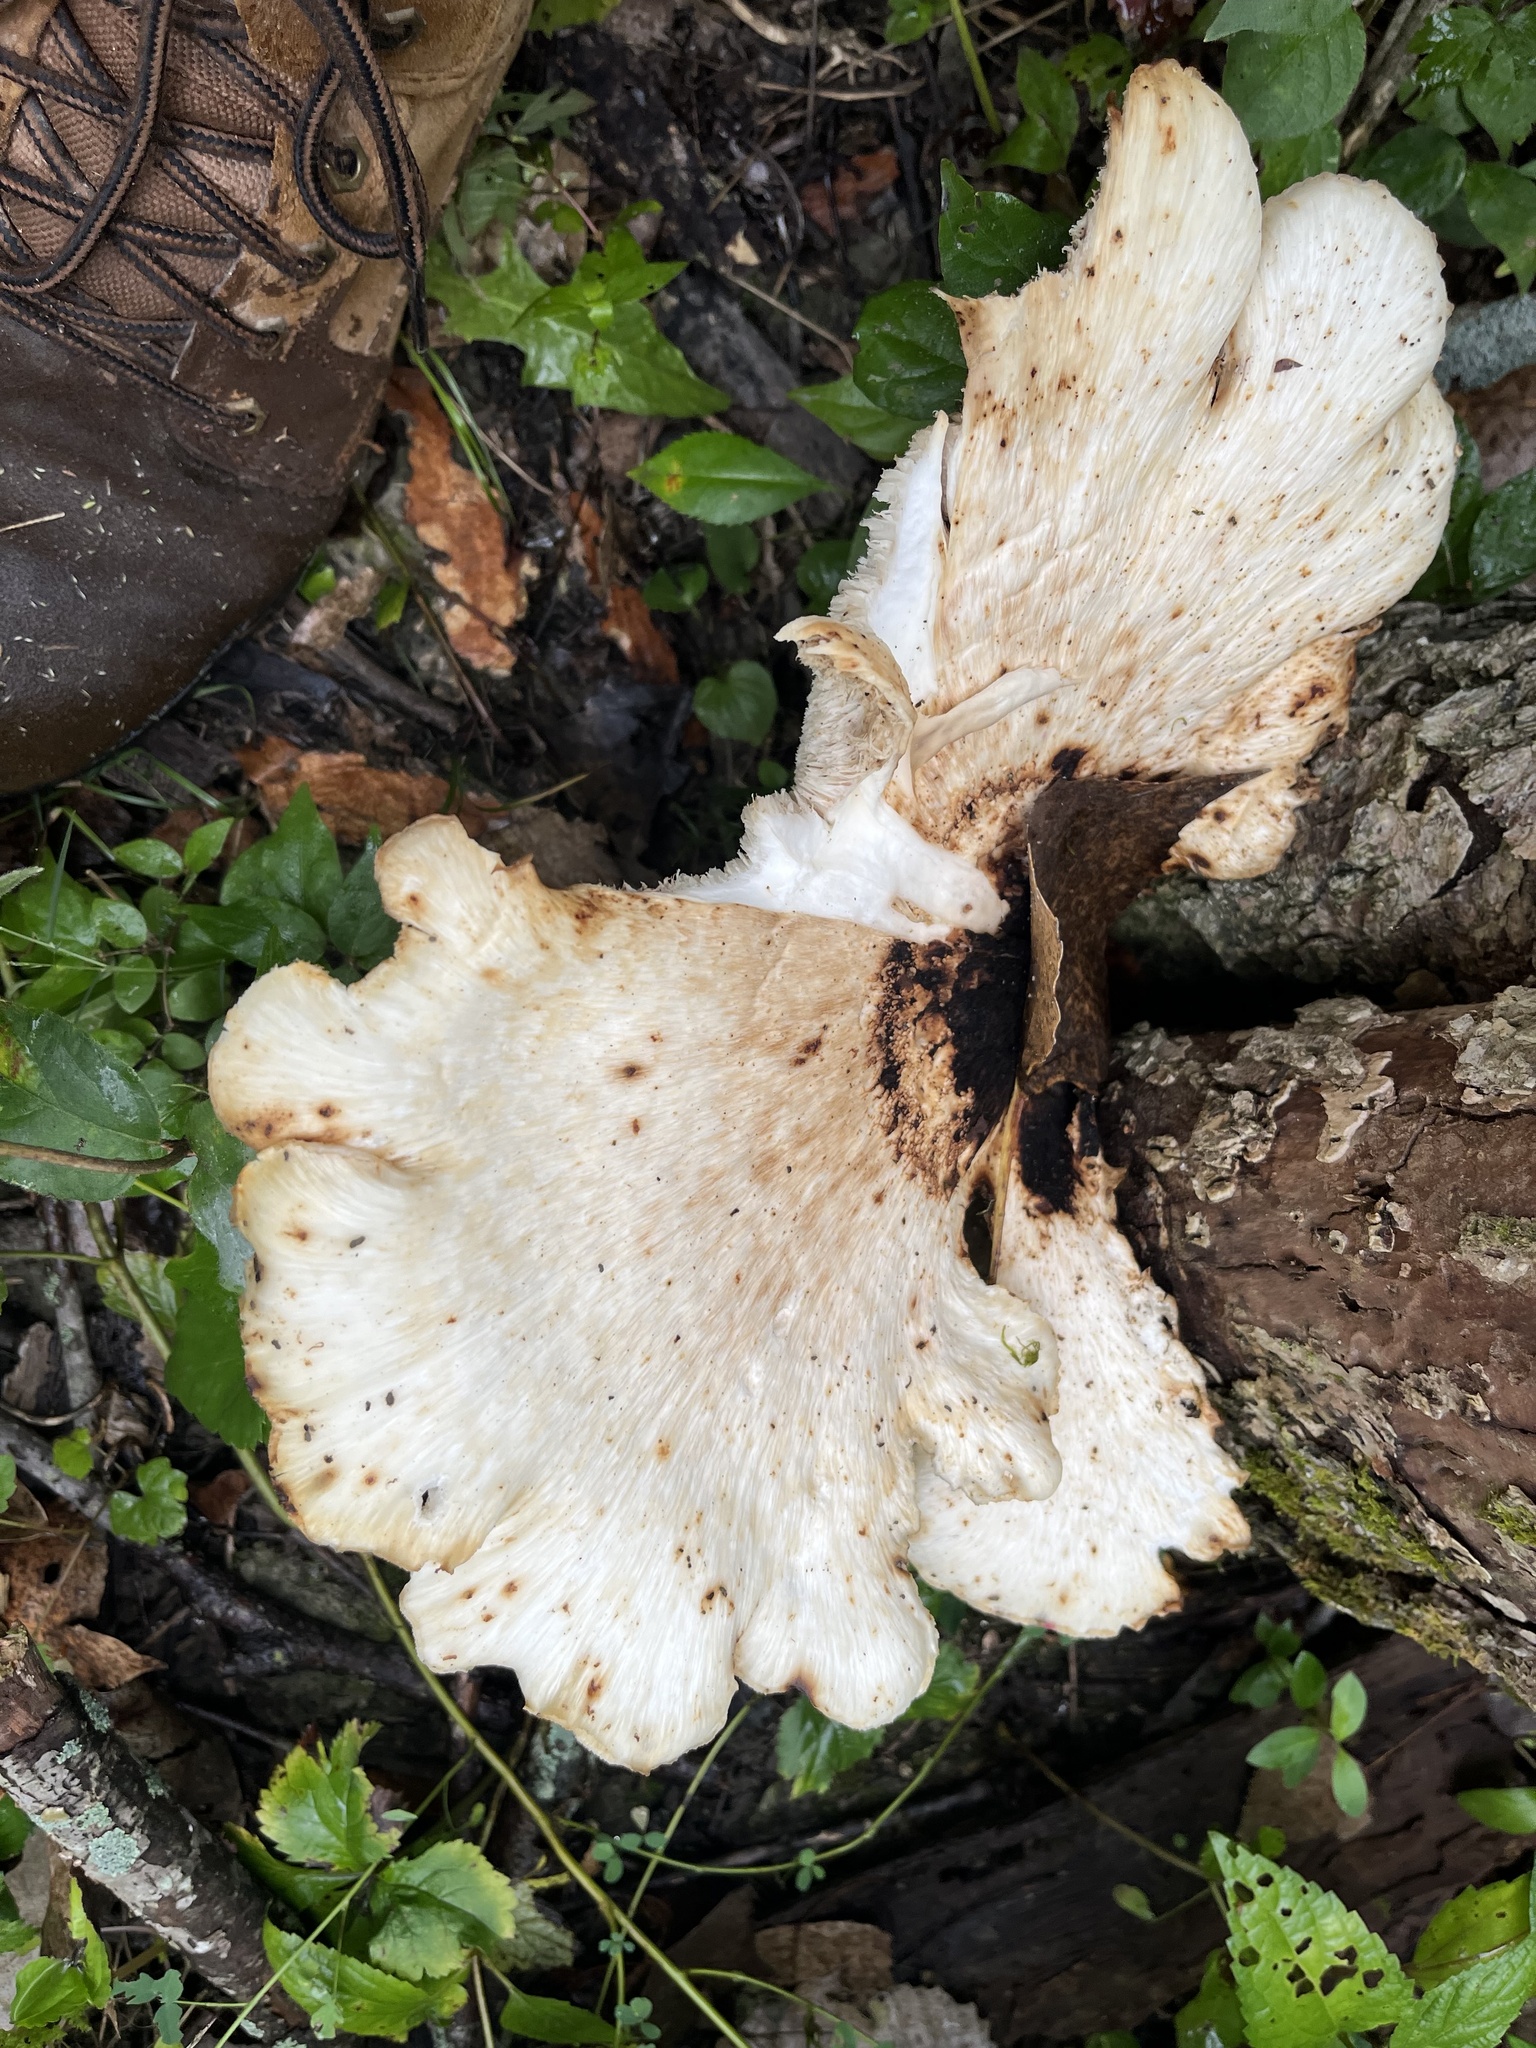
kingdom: Fungi
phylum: Basidiomycota
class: Agaricomycetes
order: Polyporales
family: Polyporaceae
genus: Cerioporus
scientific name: Cerioporus squamosus
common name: Dryad's saddle
